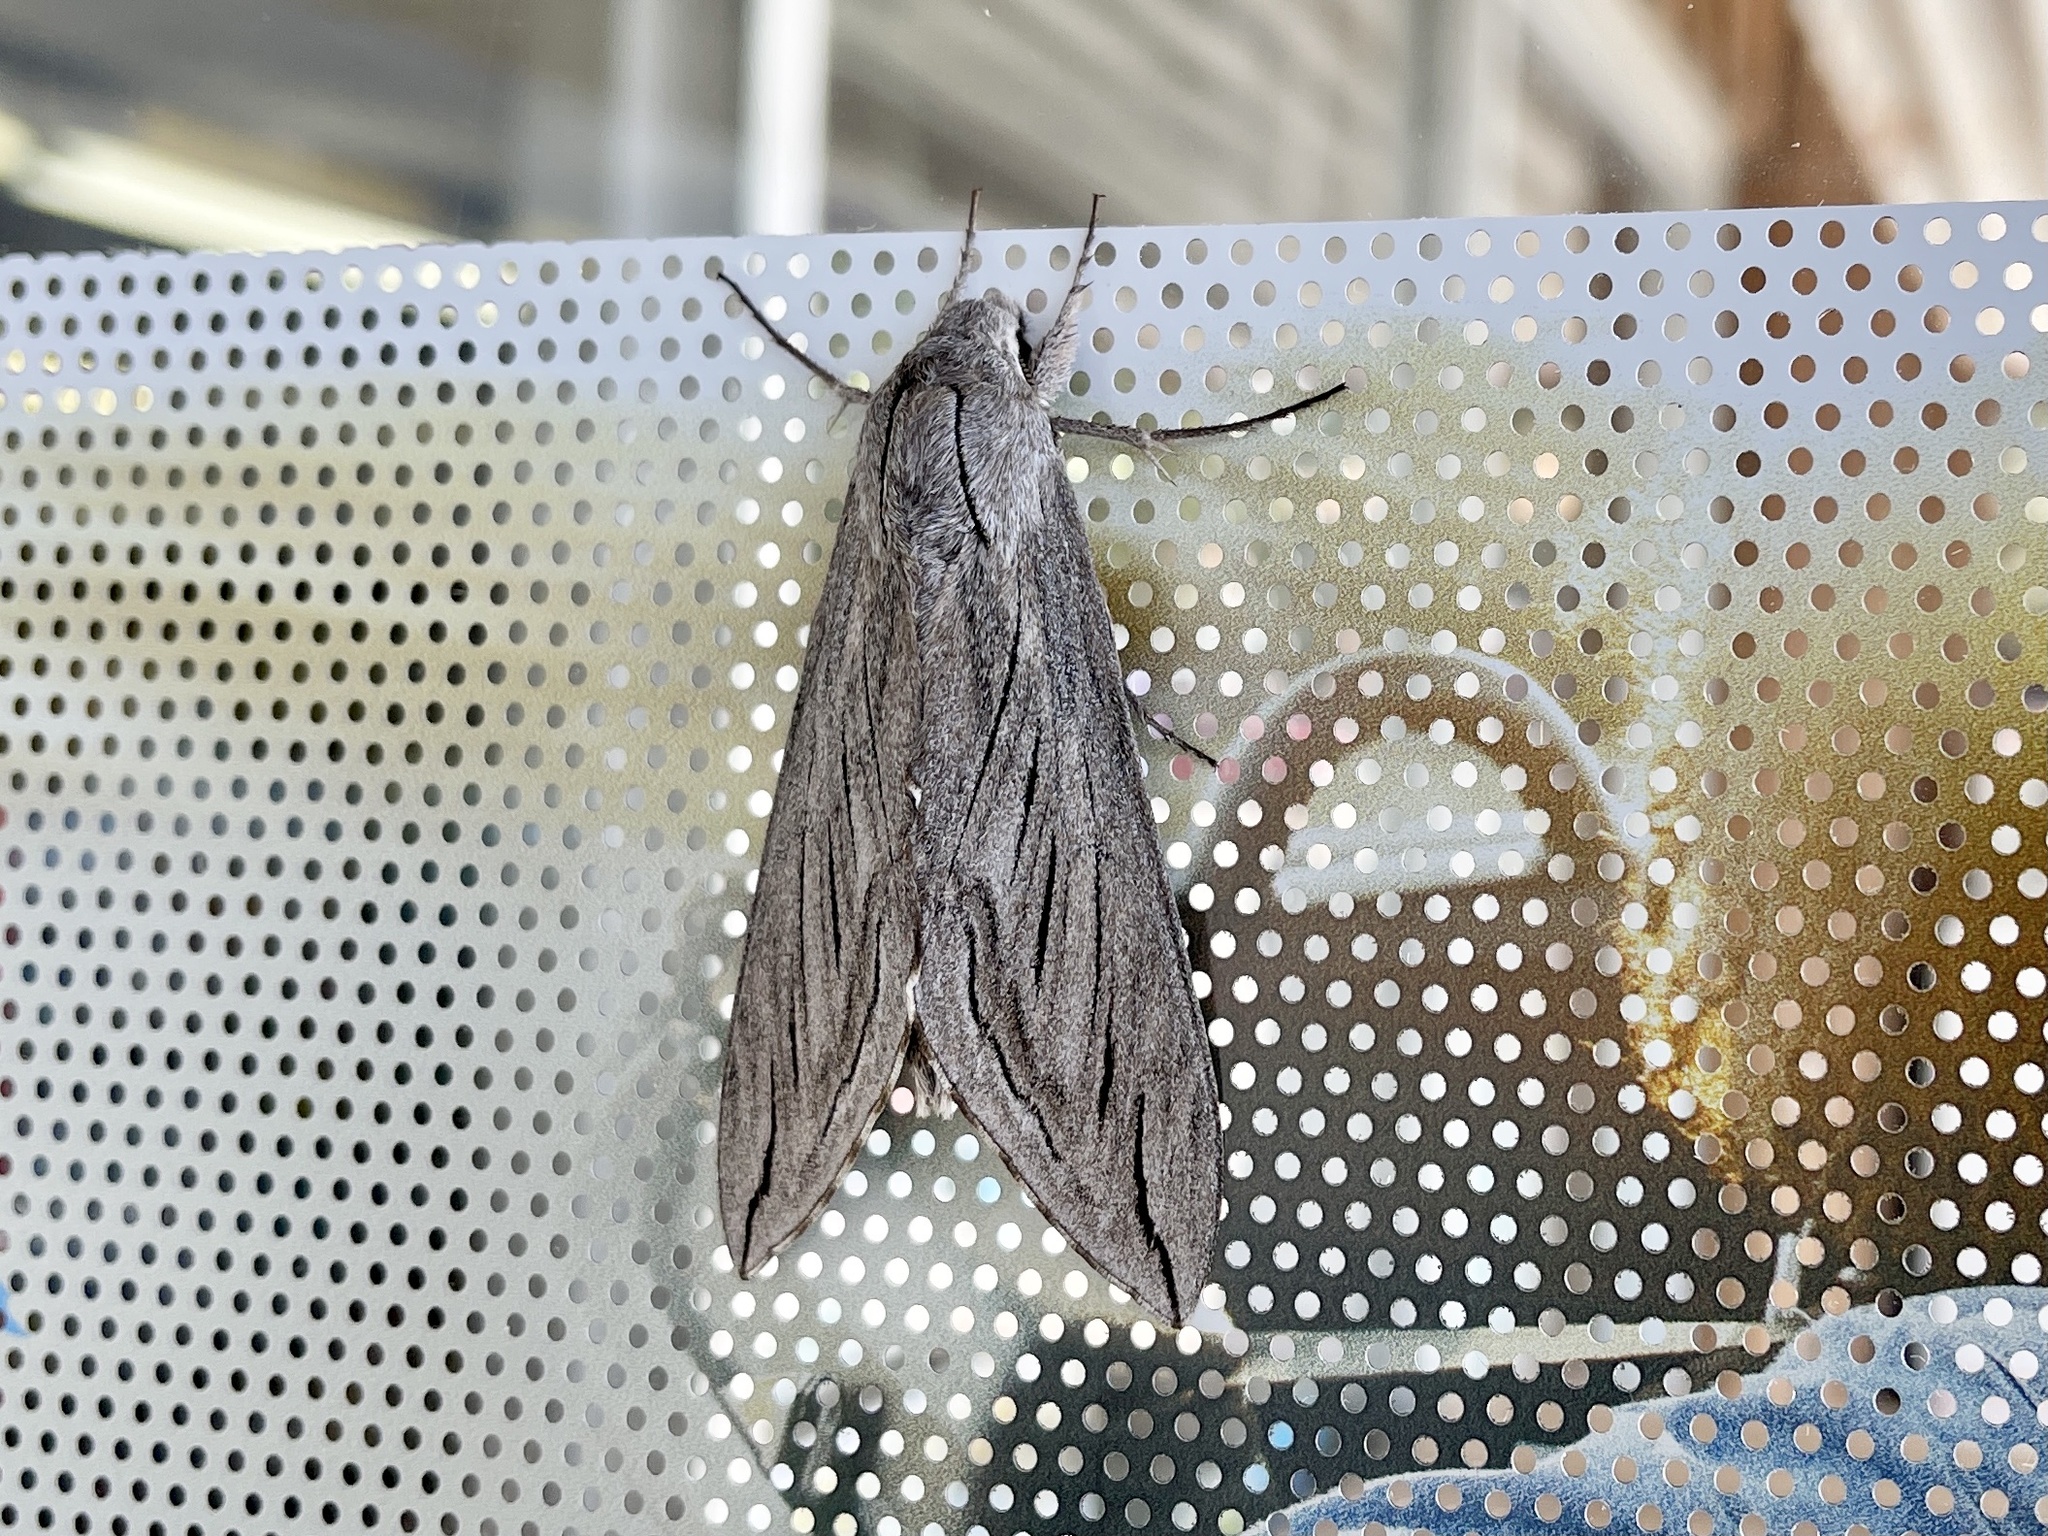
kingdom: Animalia
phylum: Arthropoda
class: Insecta
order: Lepidoptera
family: Sphingidae
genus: Sphinx
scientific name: Sphinx chersis
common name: Great ash sphinx
